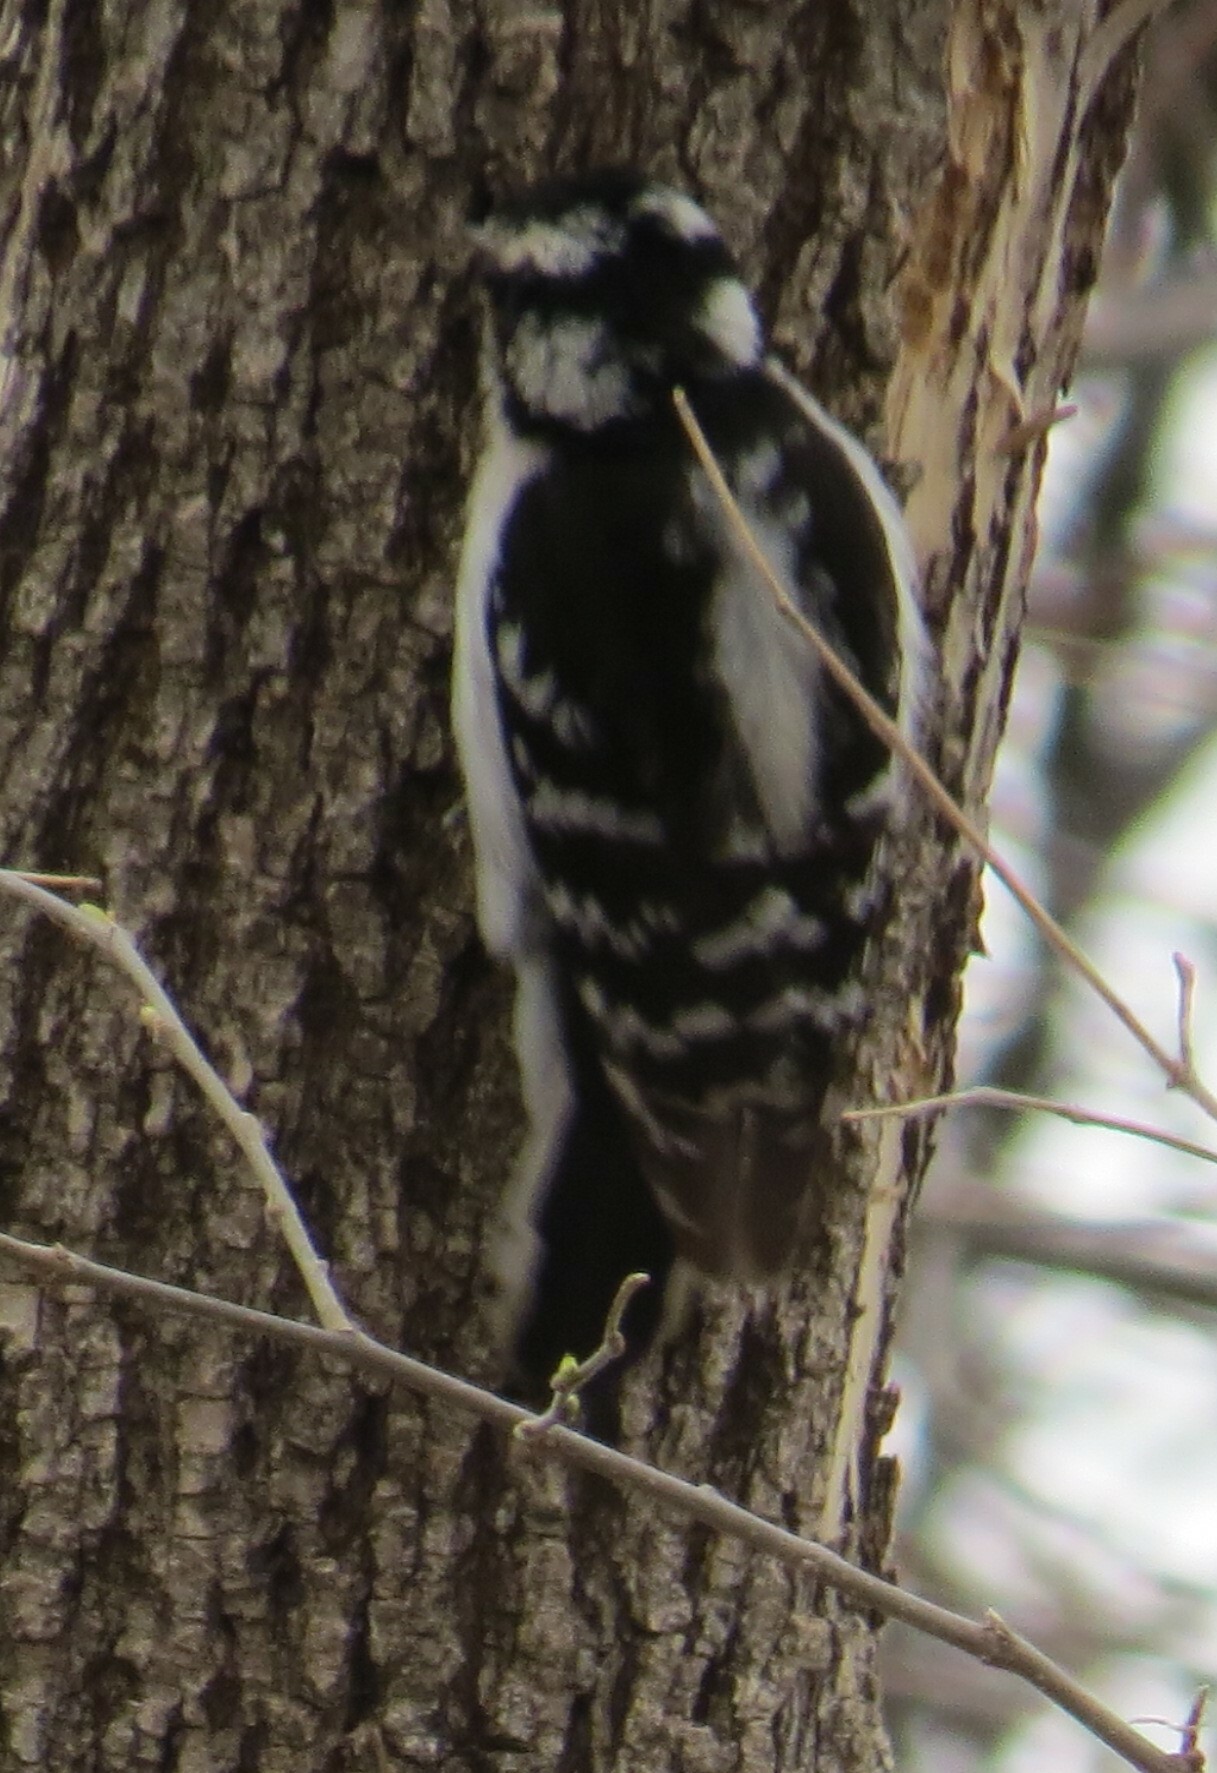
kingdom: Animalia
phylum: Chordata
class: Aves
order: Piciformes
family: Picidae
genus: Dryobates
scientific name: Dryobates pubescens
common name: Downy woodpecker
